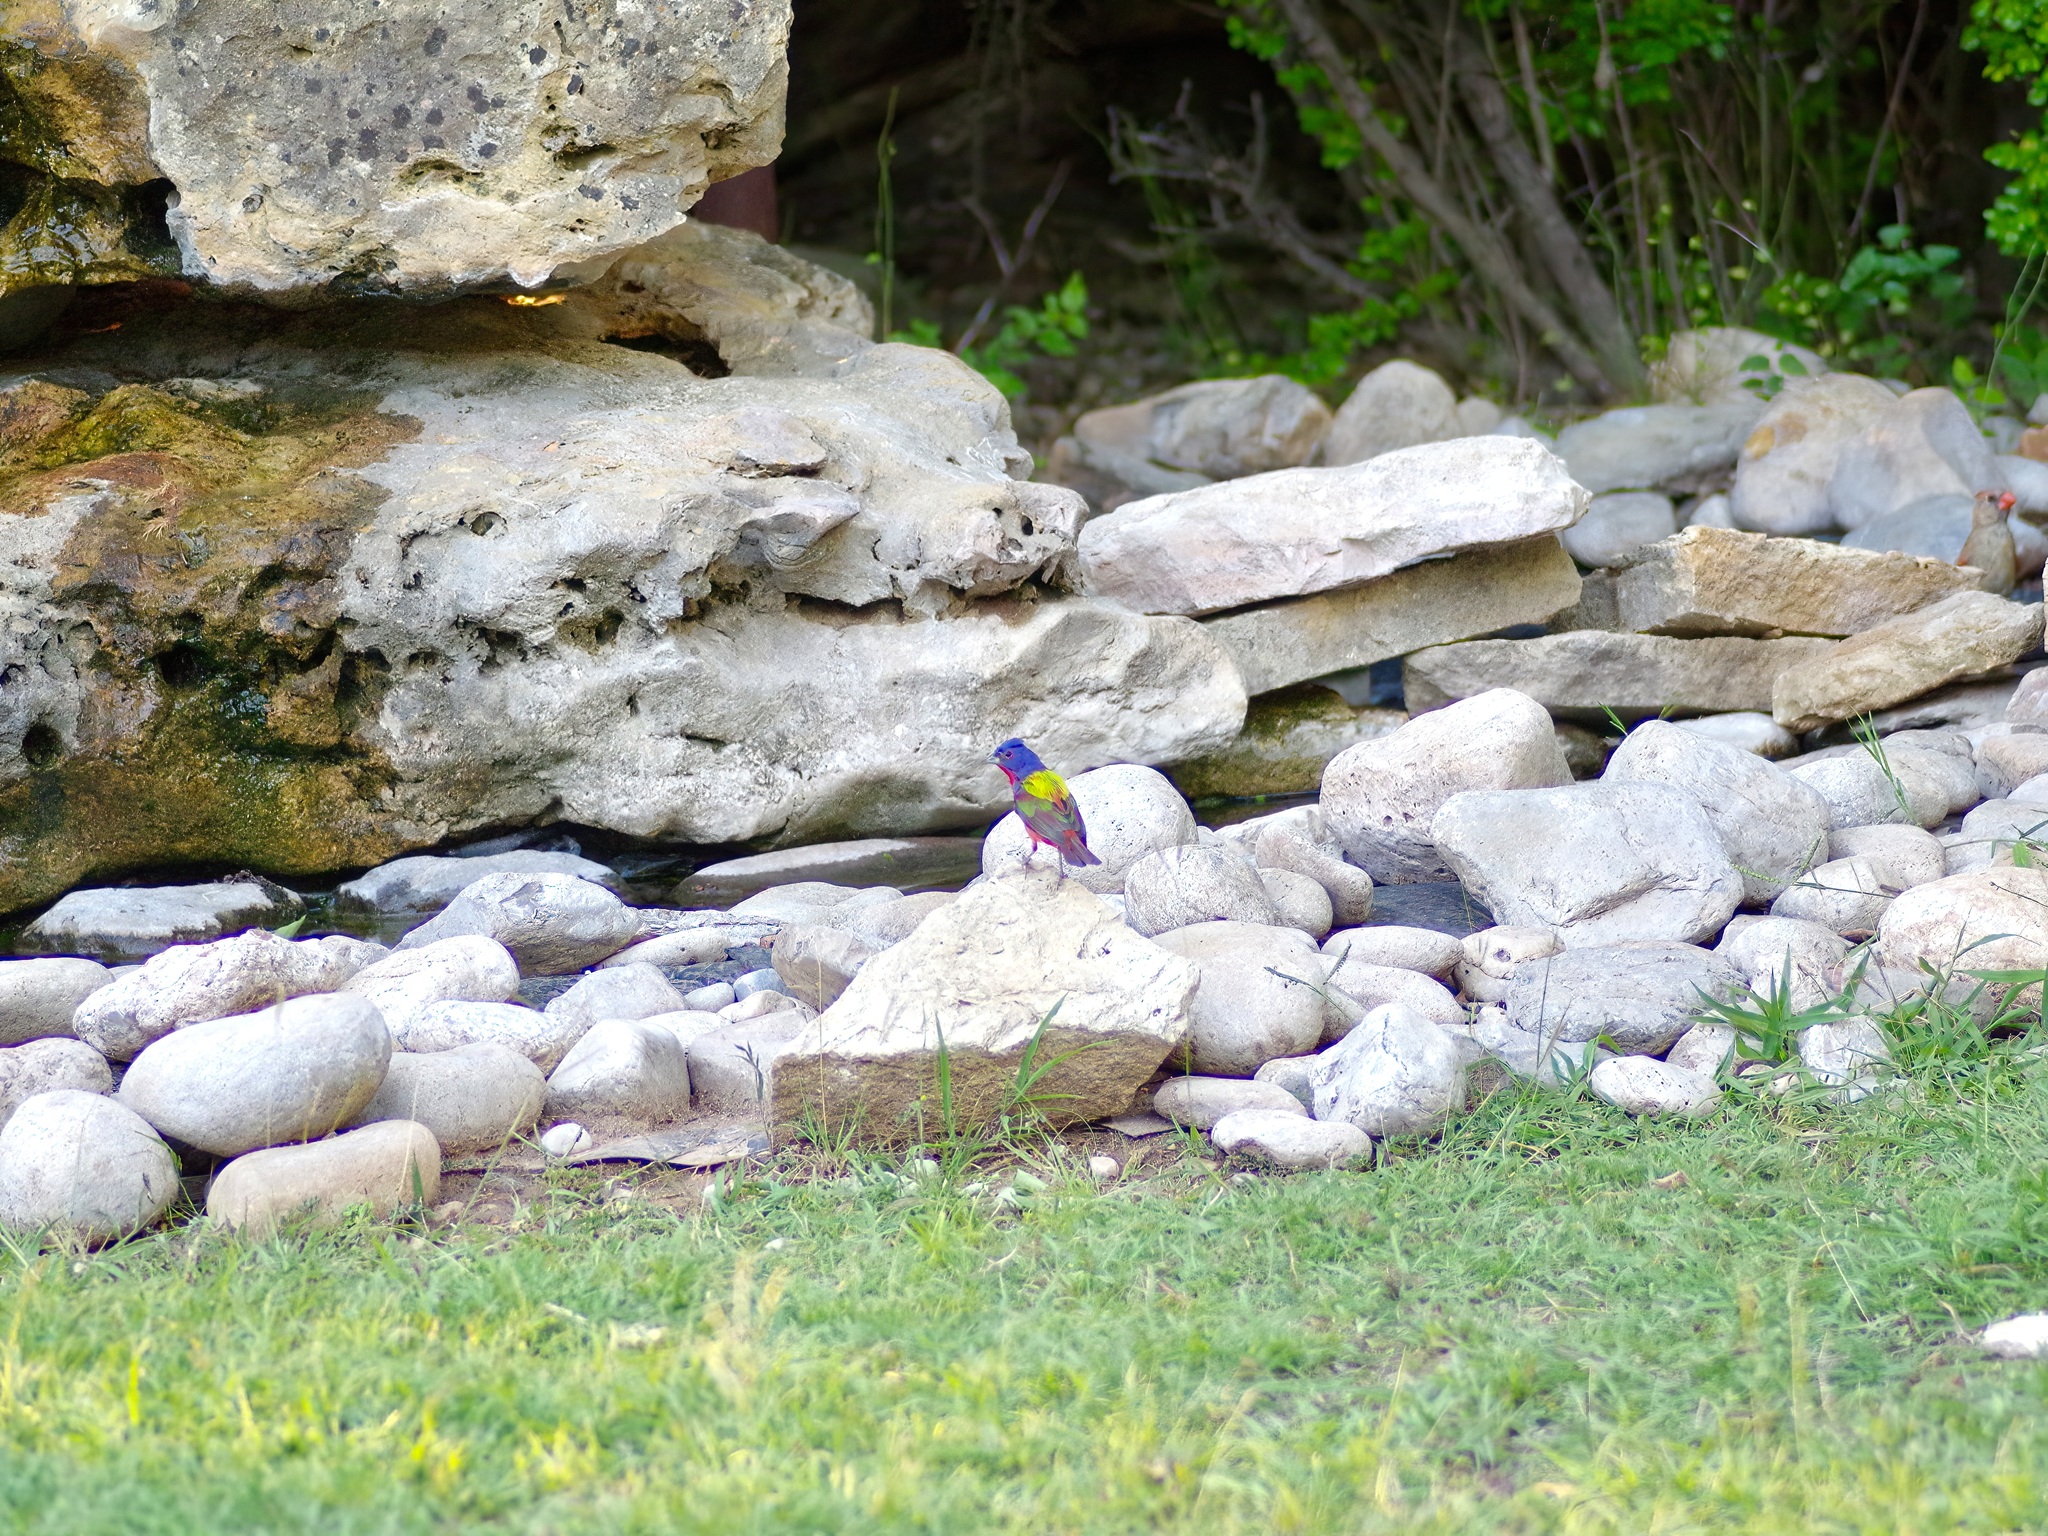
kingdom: Animalia
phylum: Chordata
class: Aves
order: Passeriformes
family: Cardinalidae
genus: Passerina
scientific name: Passerina ciris
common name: Painted bunting
